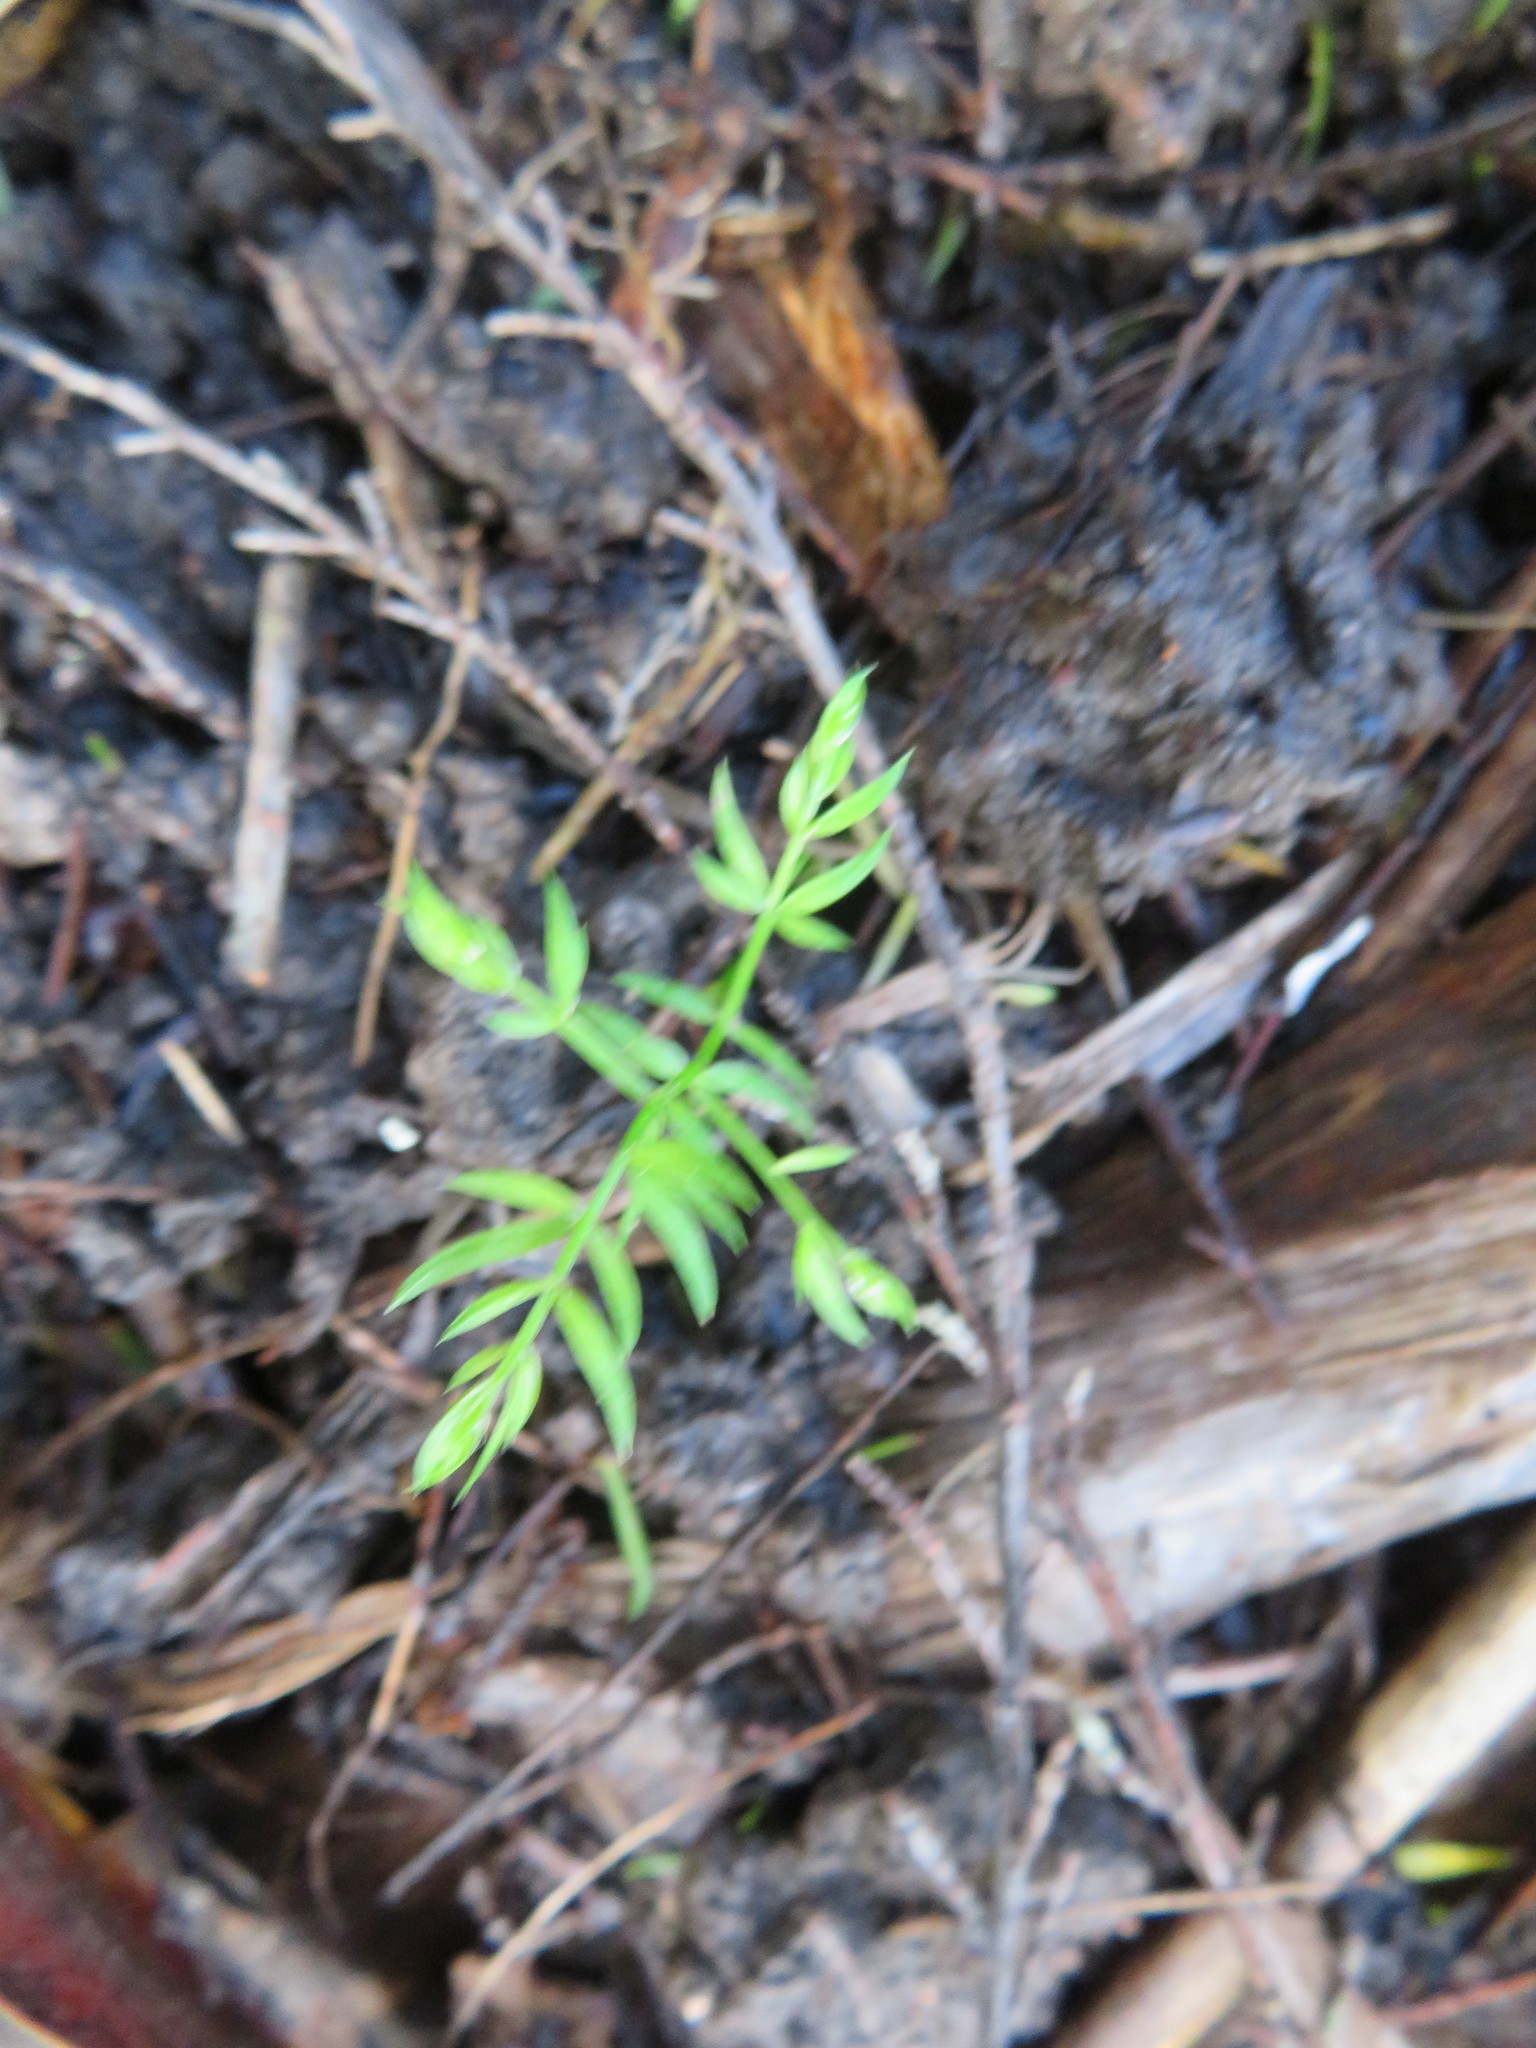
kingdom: Plantae
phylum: Tracheophyta
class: Liliopsida
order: Asparagales
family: Asparagaceae
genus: Asparagus
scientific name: Asparagus scandens
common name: Asparagus-fern
